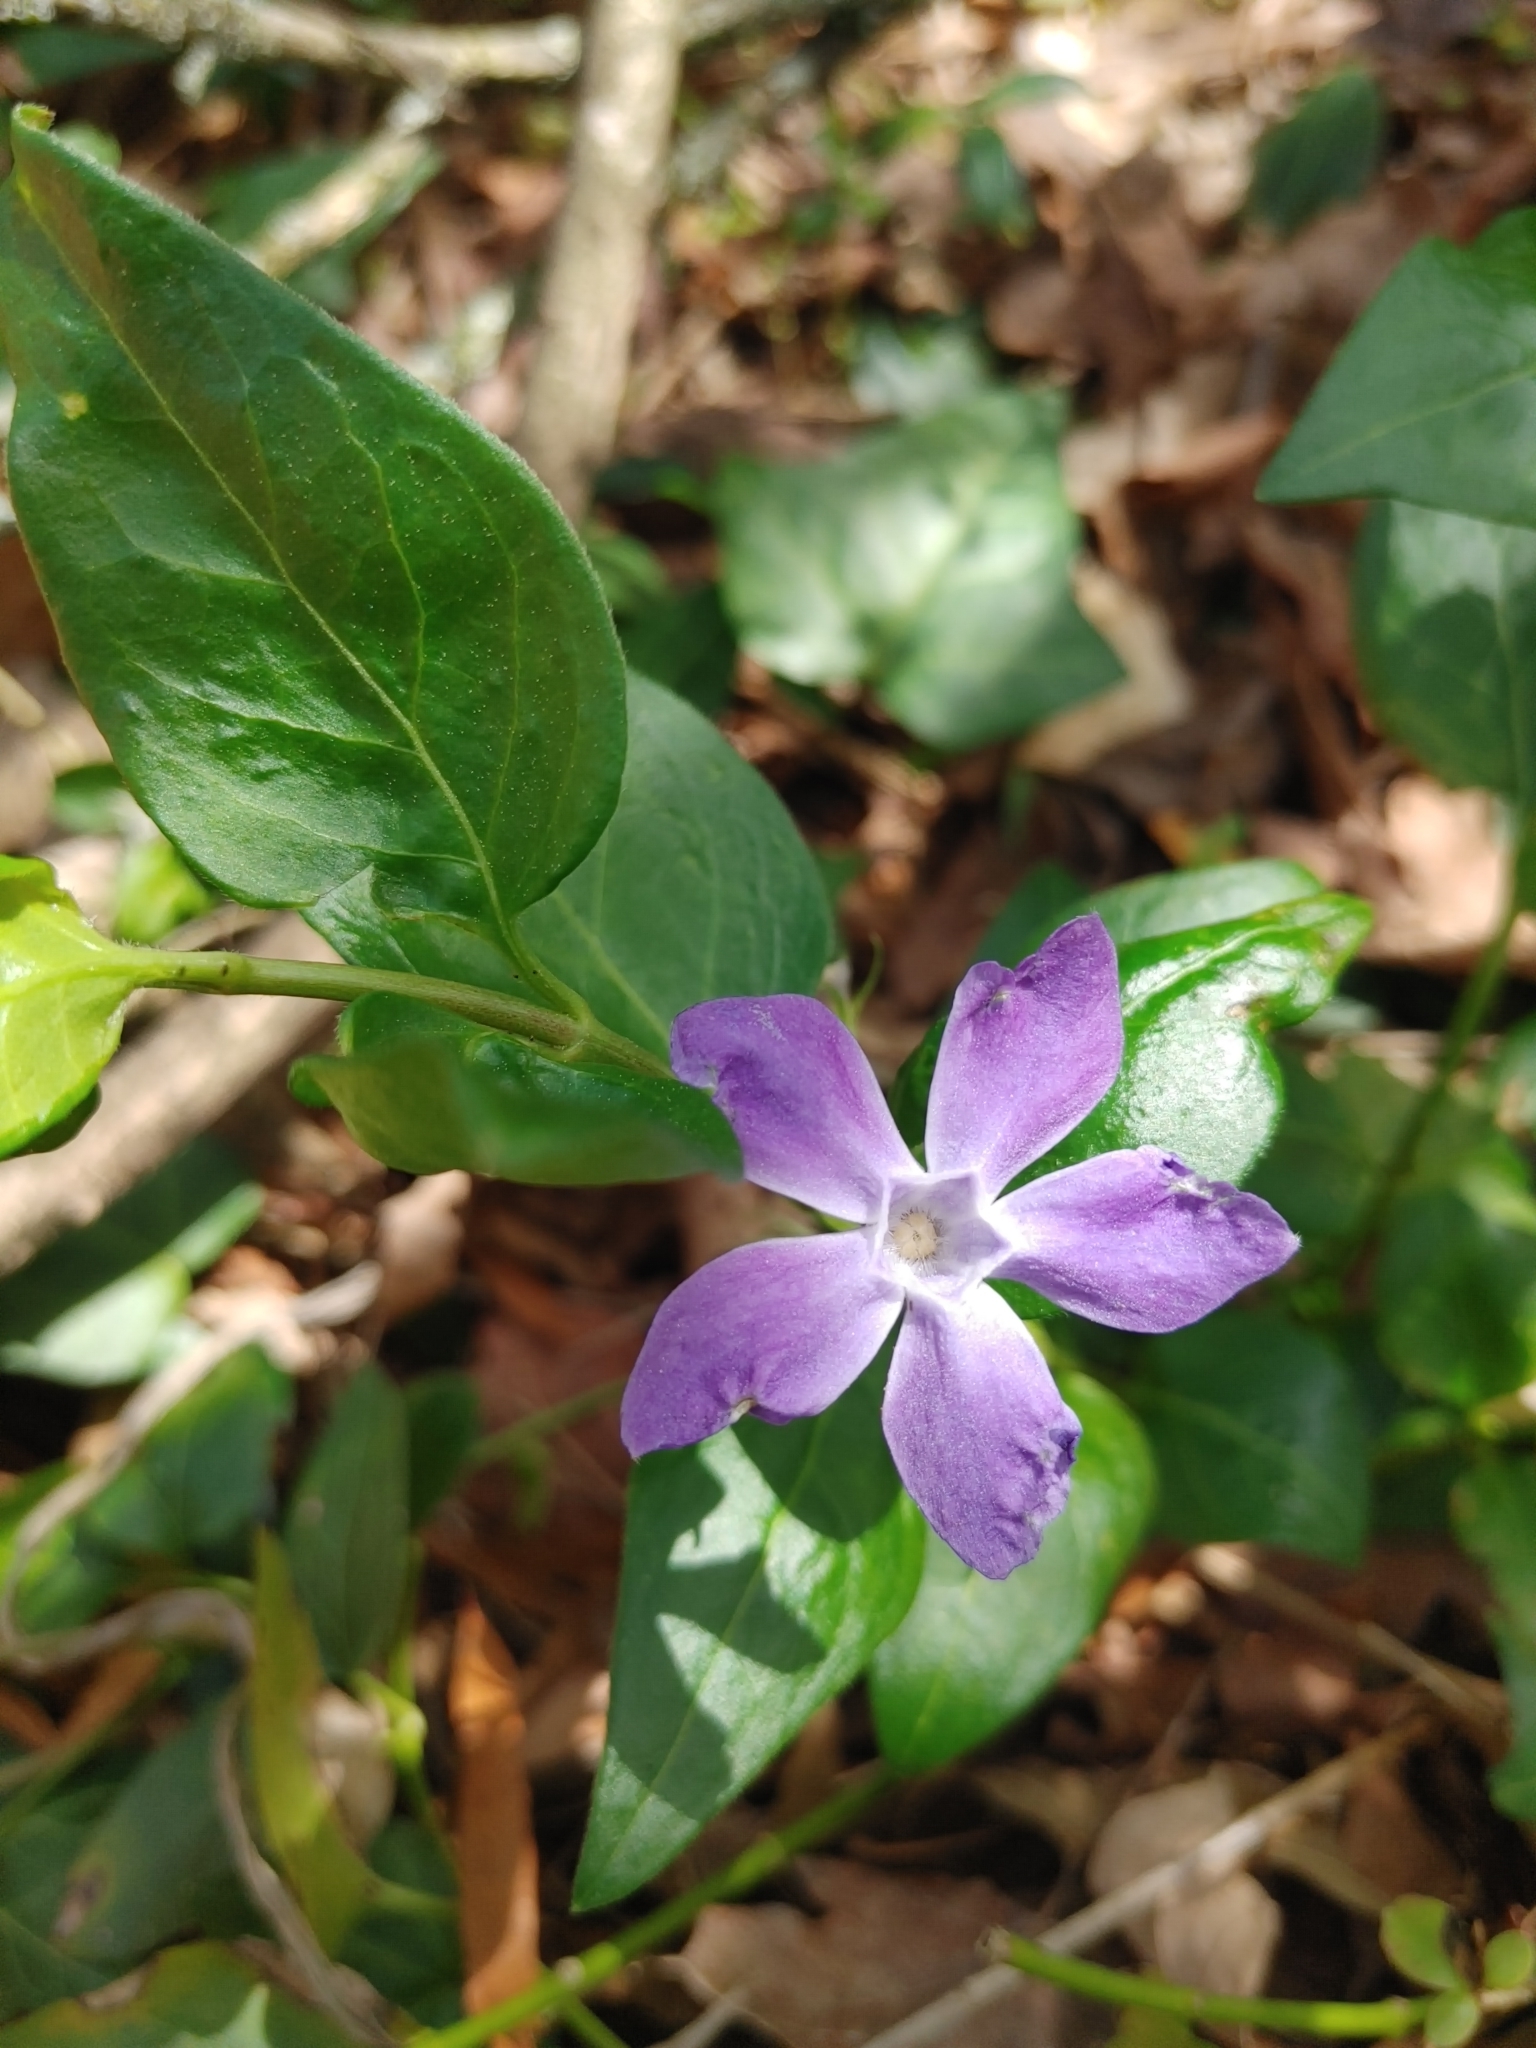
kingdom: Plantae
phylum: Tracheophyta
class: Magnoliopsida
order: Gentianales
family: Apocynaceae
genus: Vinca
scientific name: Vinca major
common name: Greater periwinkle
